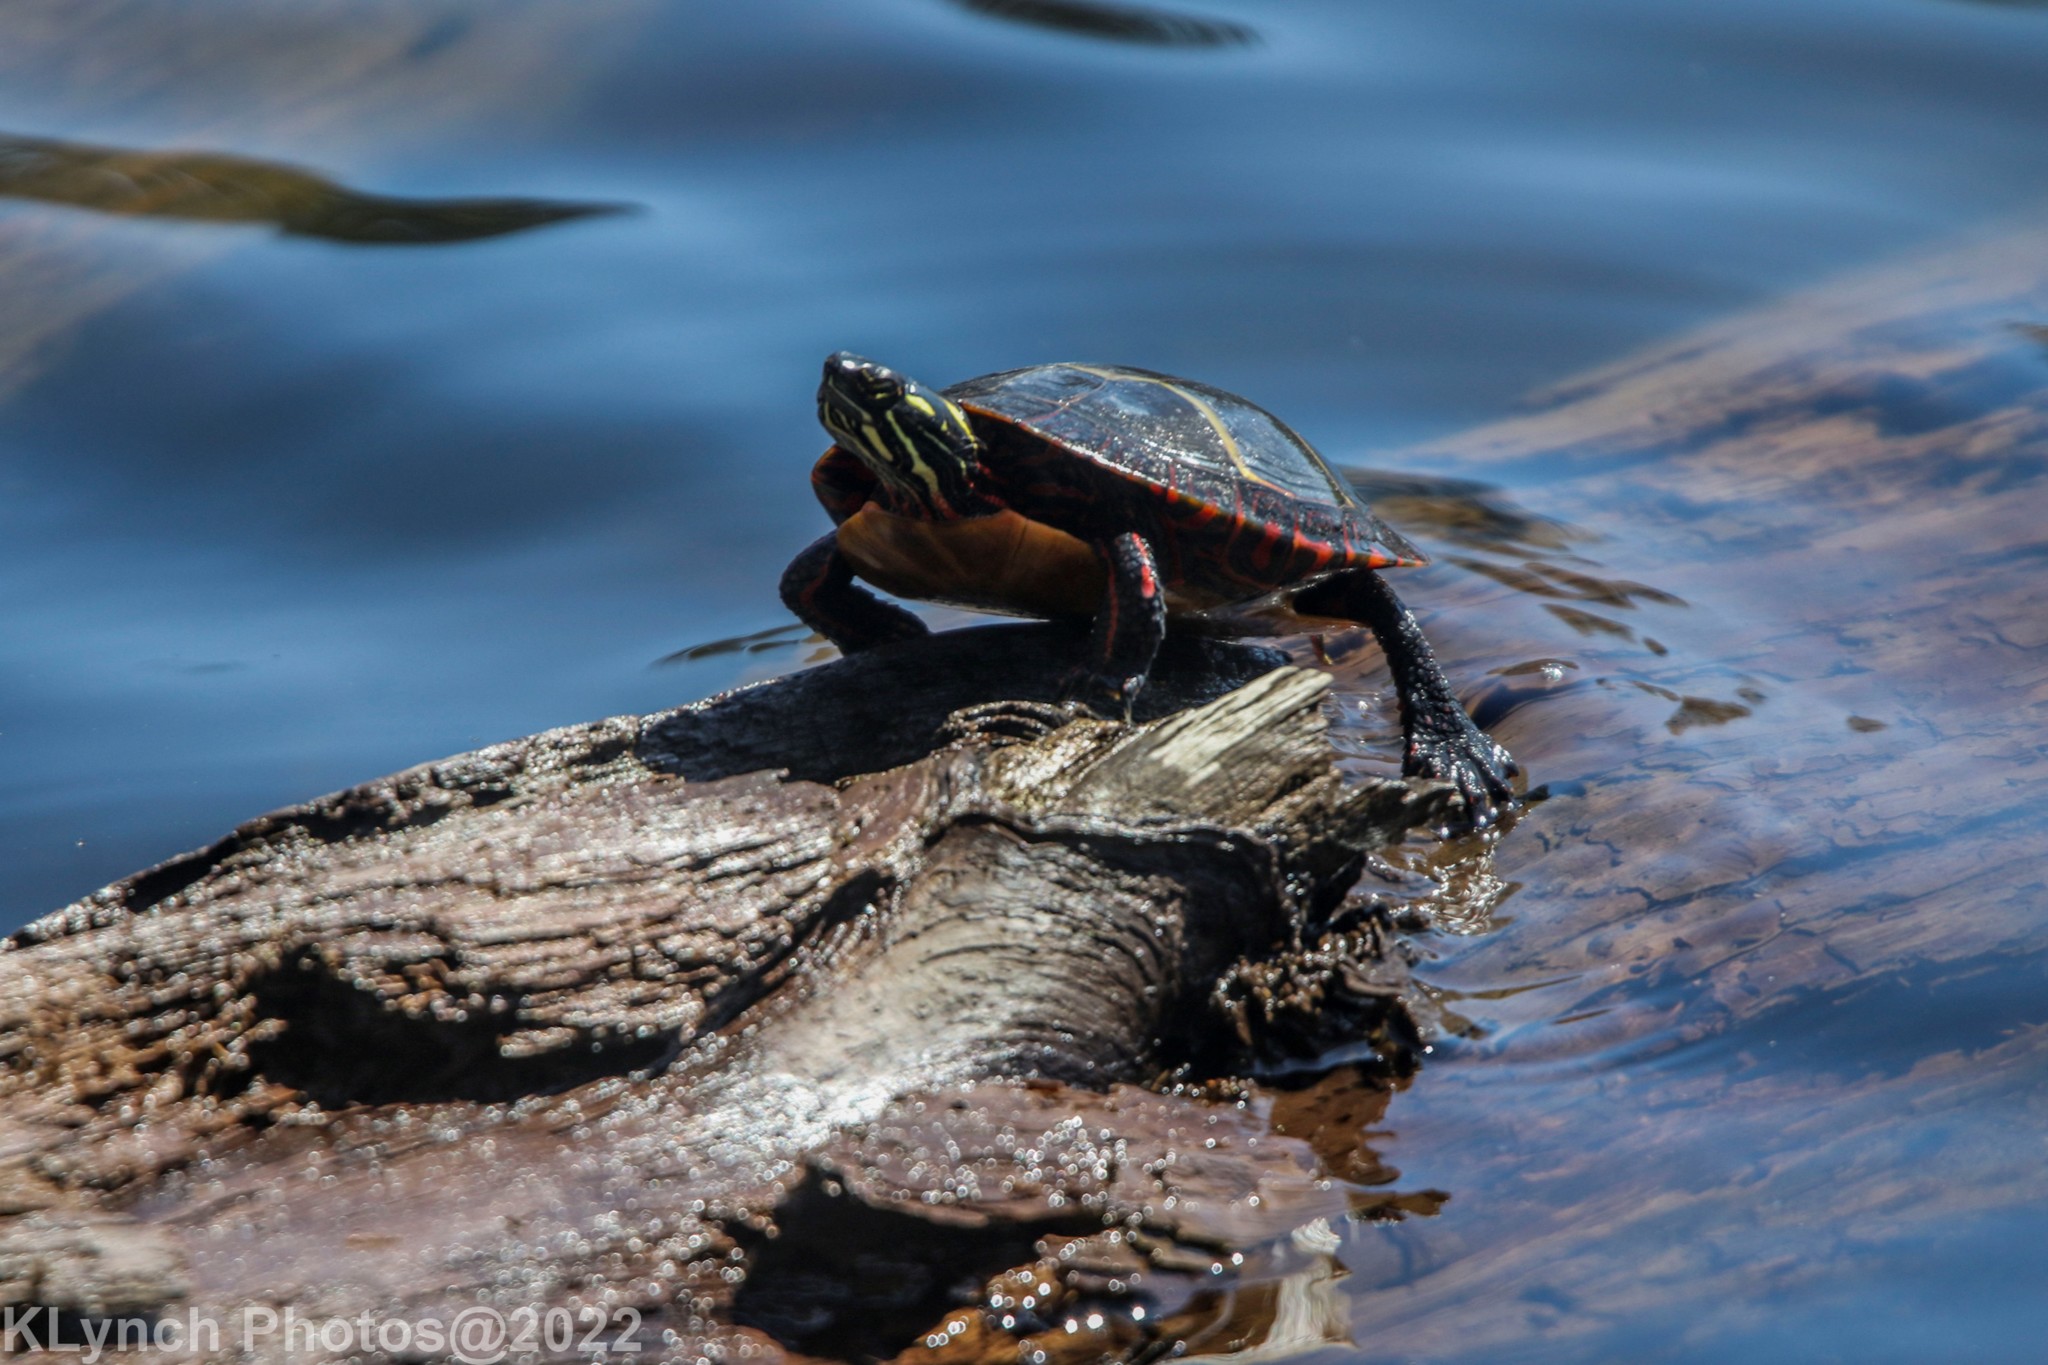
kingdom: Animalia
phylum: Chordata
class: Testudines
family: Emydidae
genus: Chrysemys
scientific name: Chrysemys picta
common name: Painted turtle
